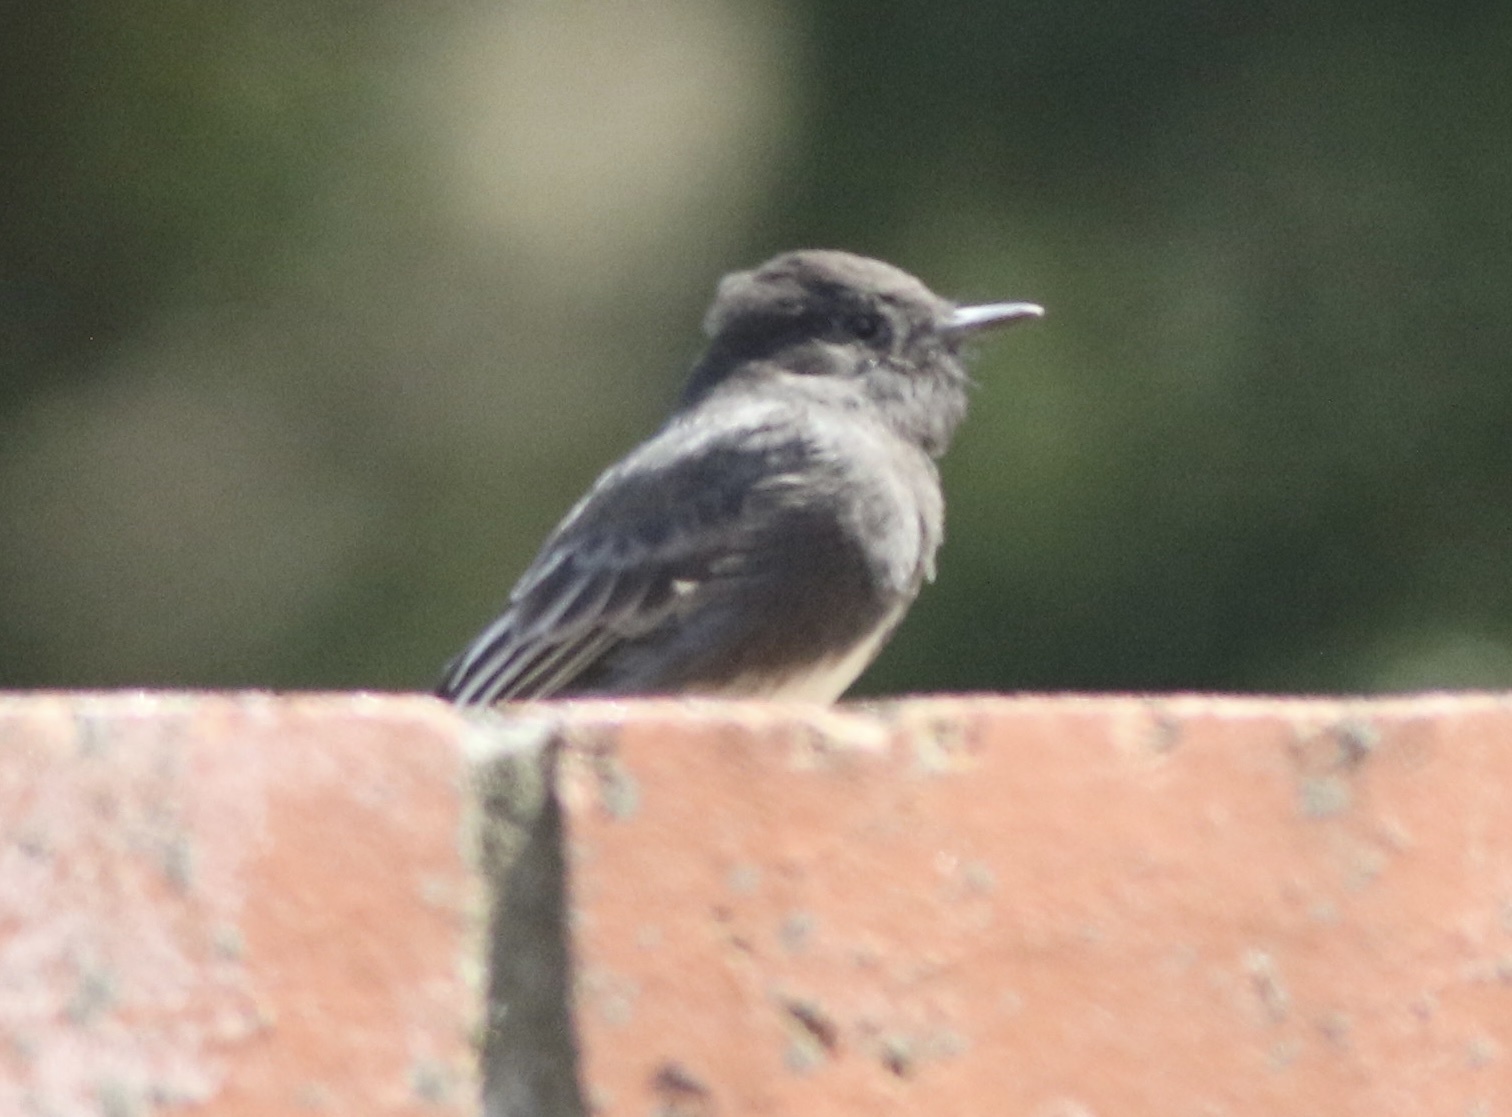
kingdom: Animalia
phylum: Chordata
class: Aves
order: Passeriformes
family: Tyrannidae
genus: Sayornis
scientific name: Sayornis nigricans
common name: Black phoebe
